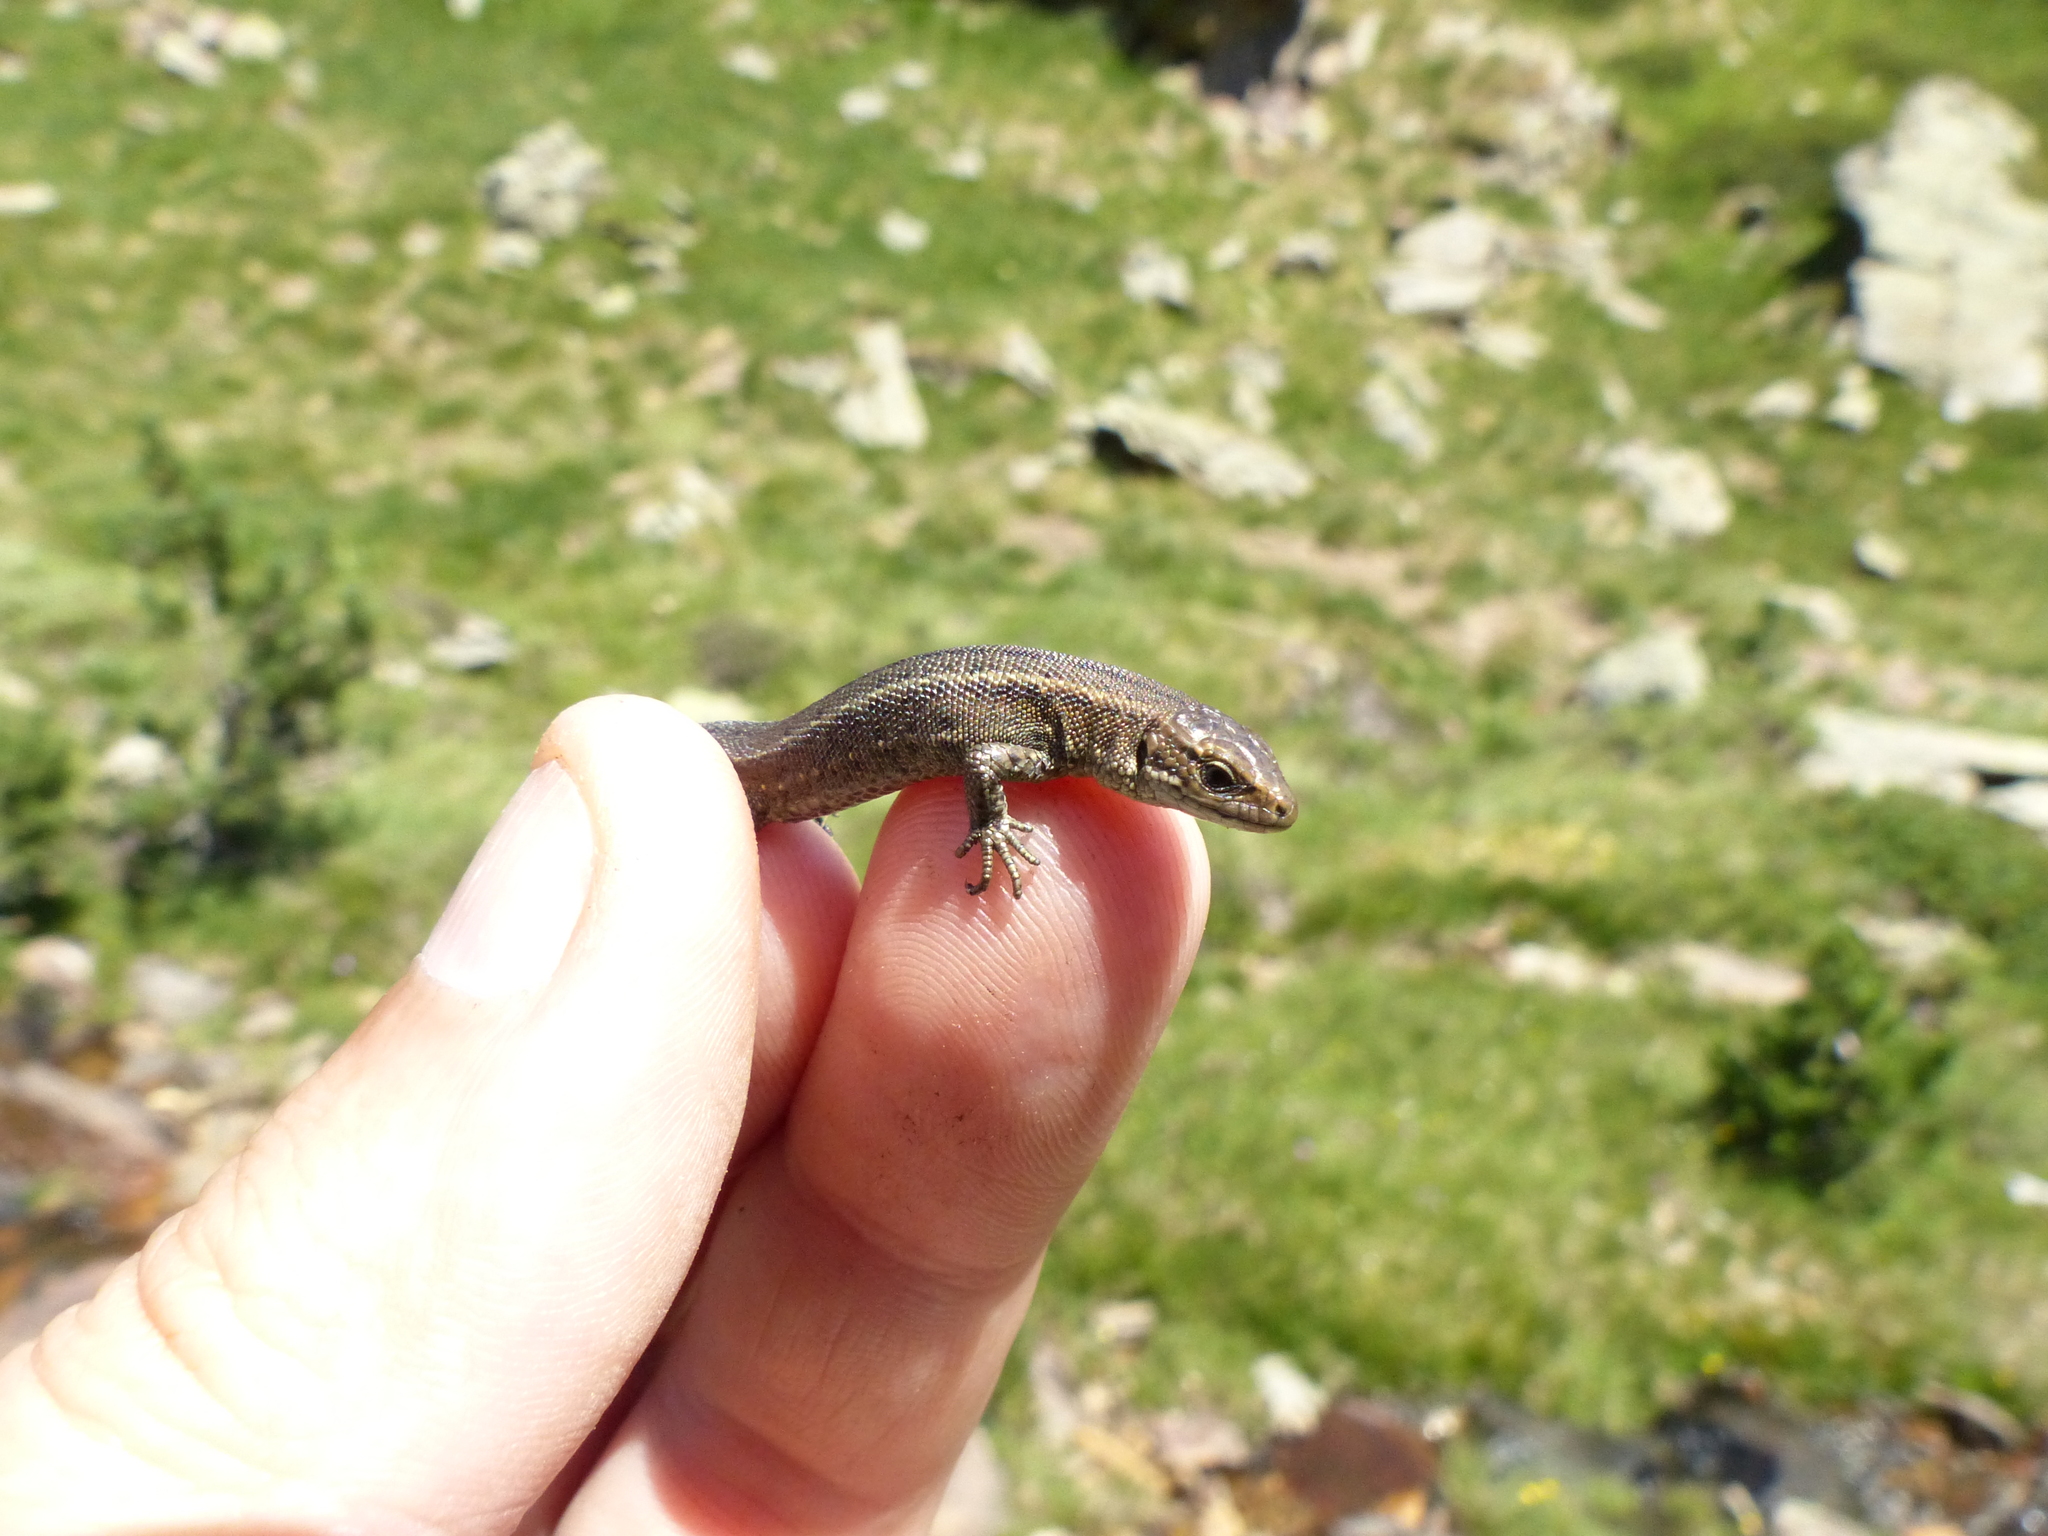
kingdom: Animalia
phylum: Chordata
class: Squamata
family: Lacertidae
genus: Zootoca
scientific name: Zootoca vivipara
